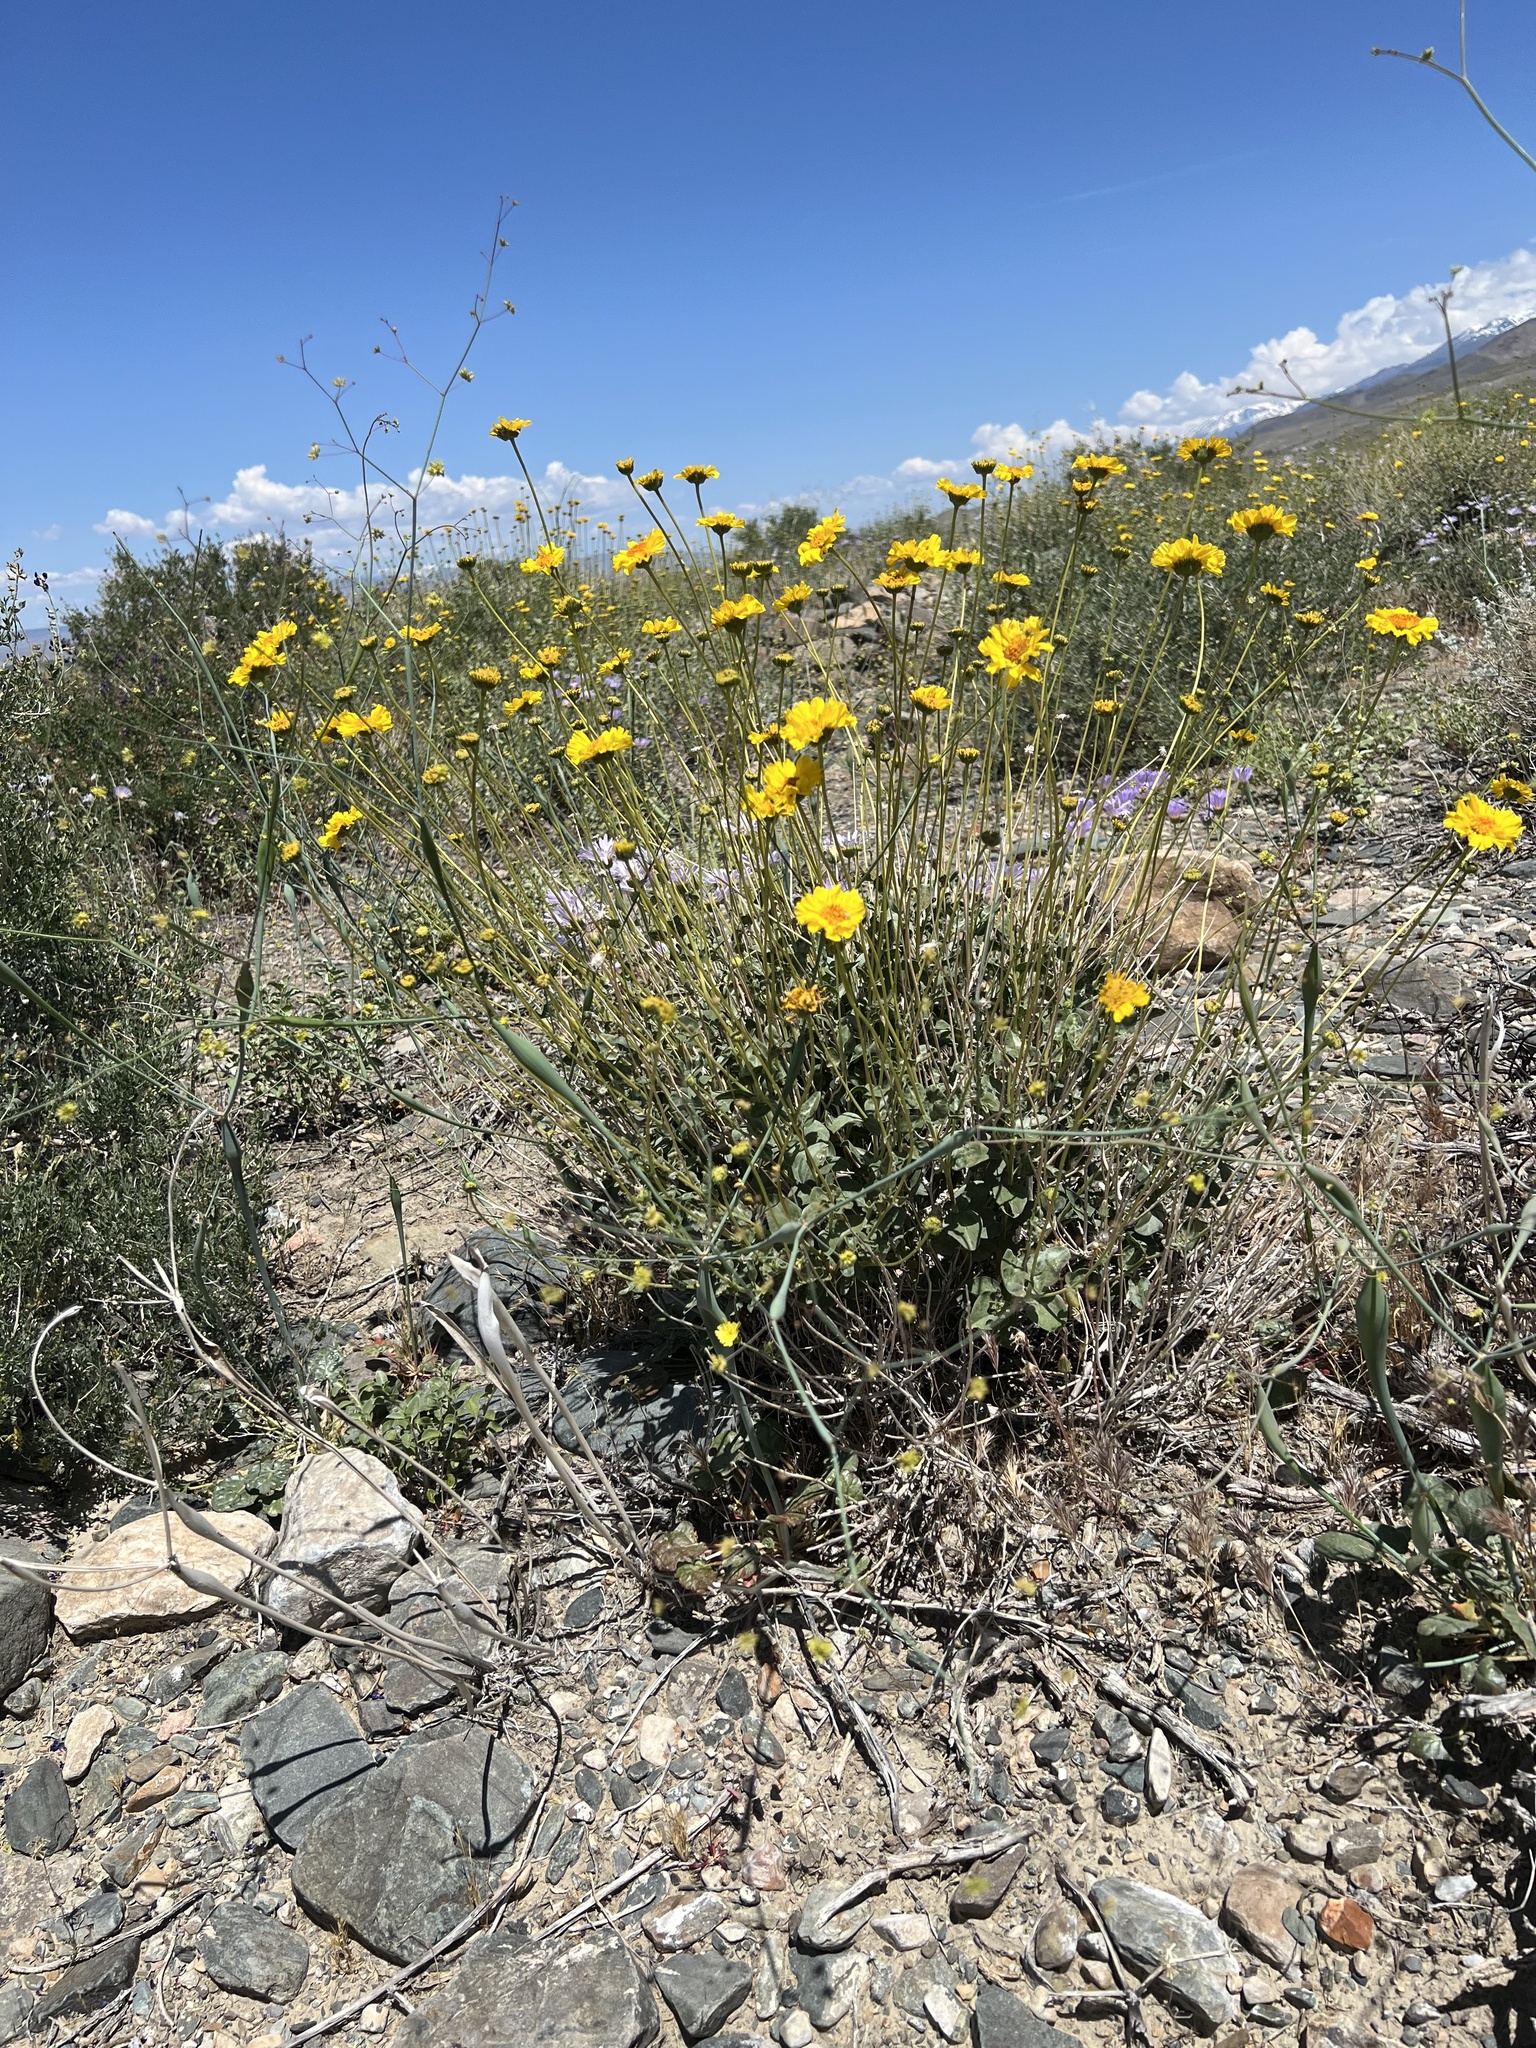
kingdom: Plantae
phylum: Tracheophyta
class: Magnoliopsida
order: Asterales
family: Asteraceae
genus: Encelia
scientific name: Encelia actoni
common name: Acton encelia
